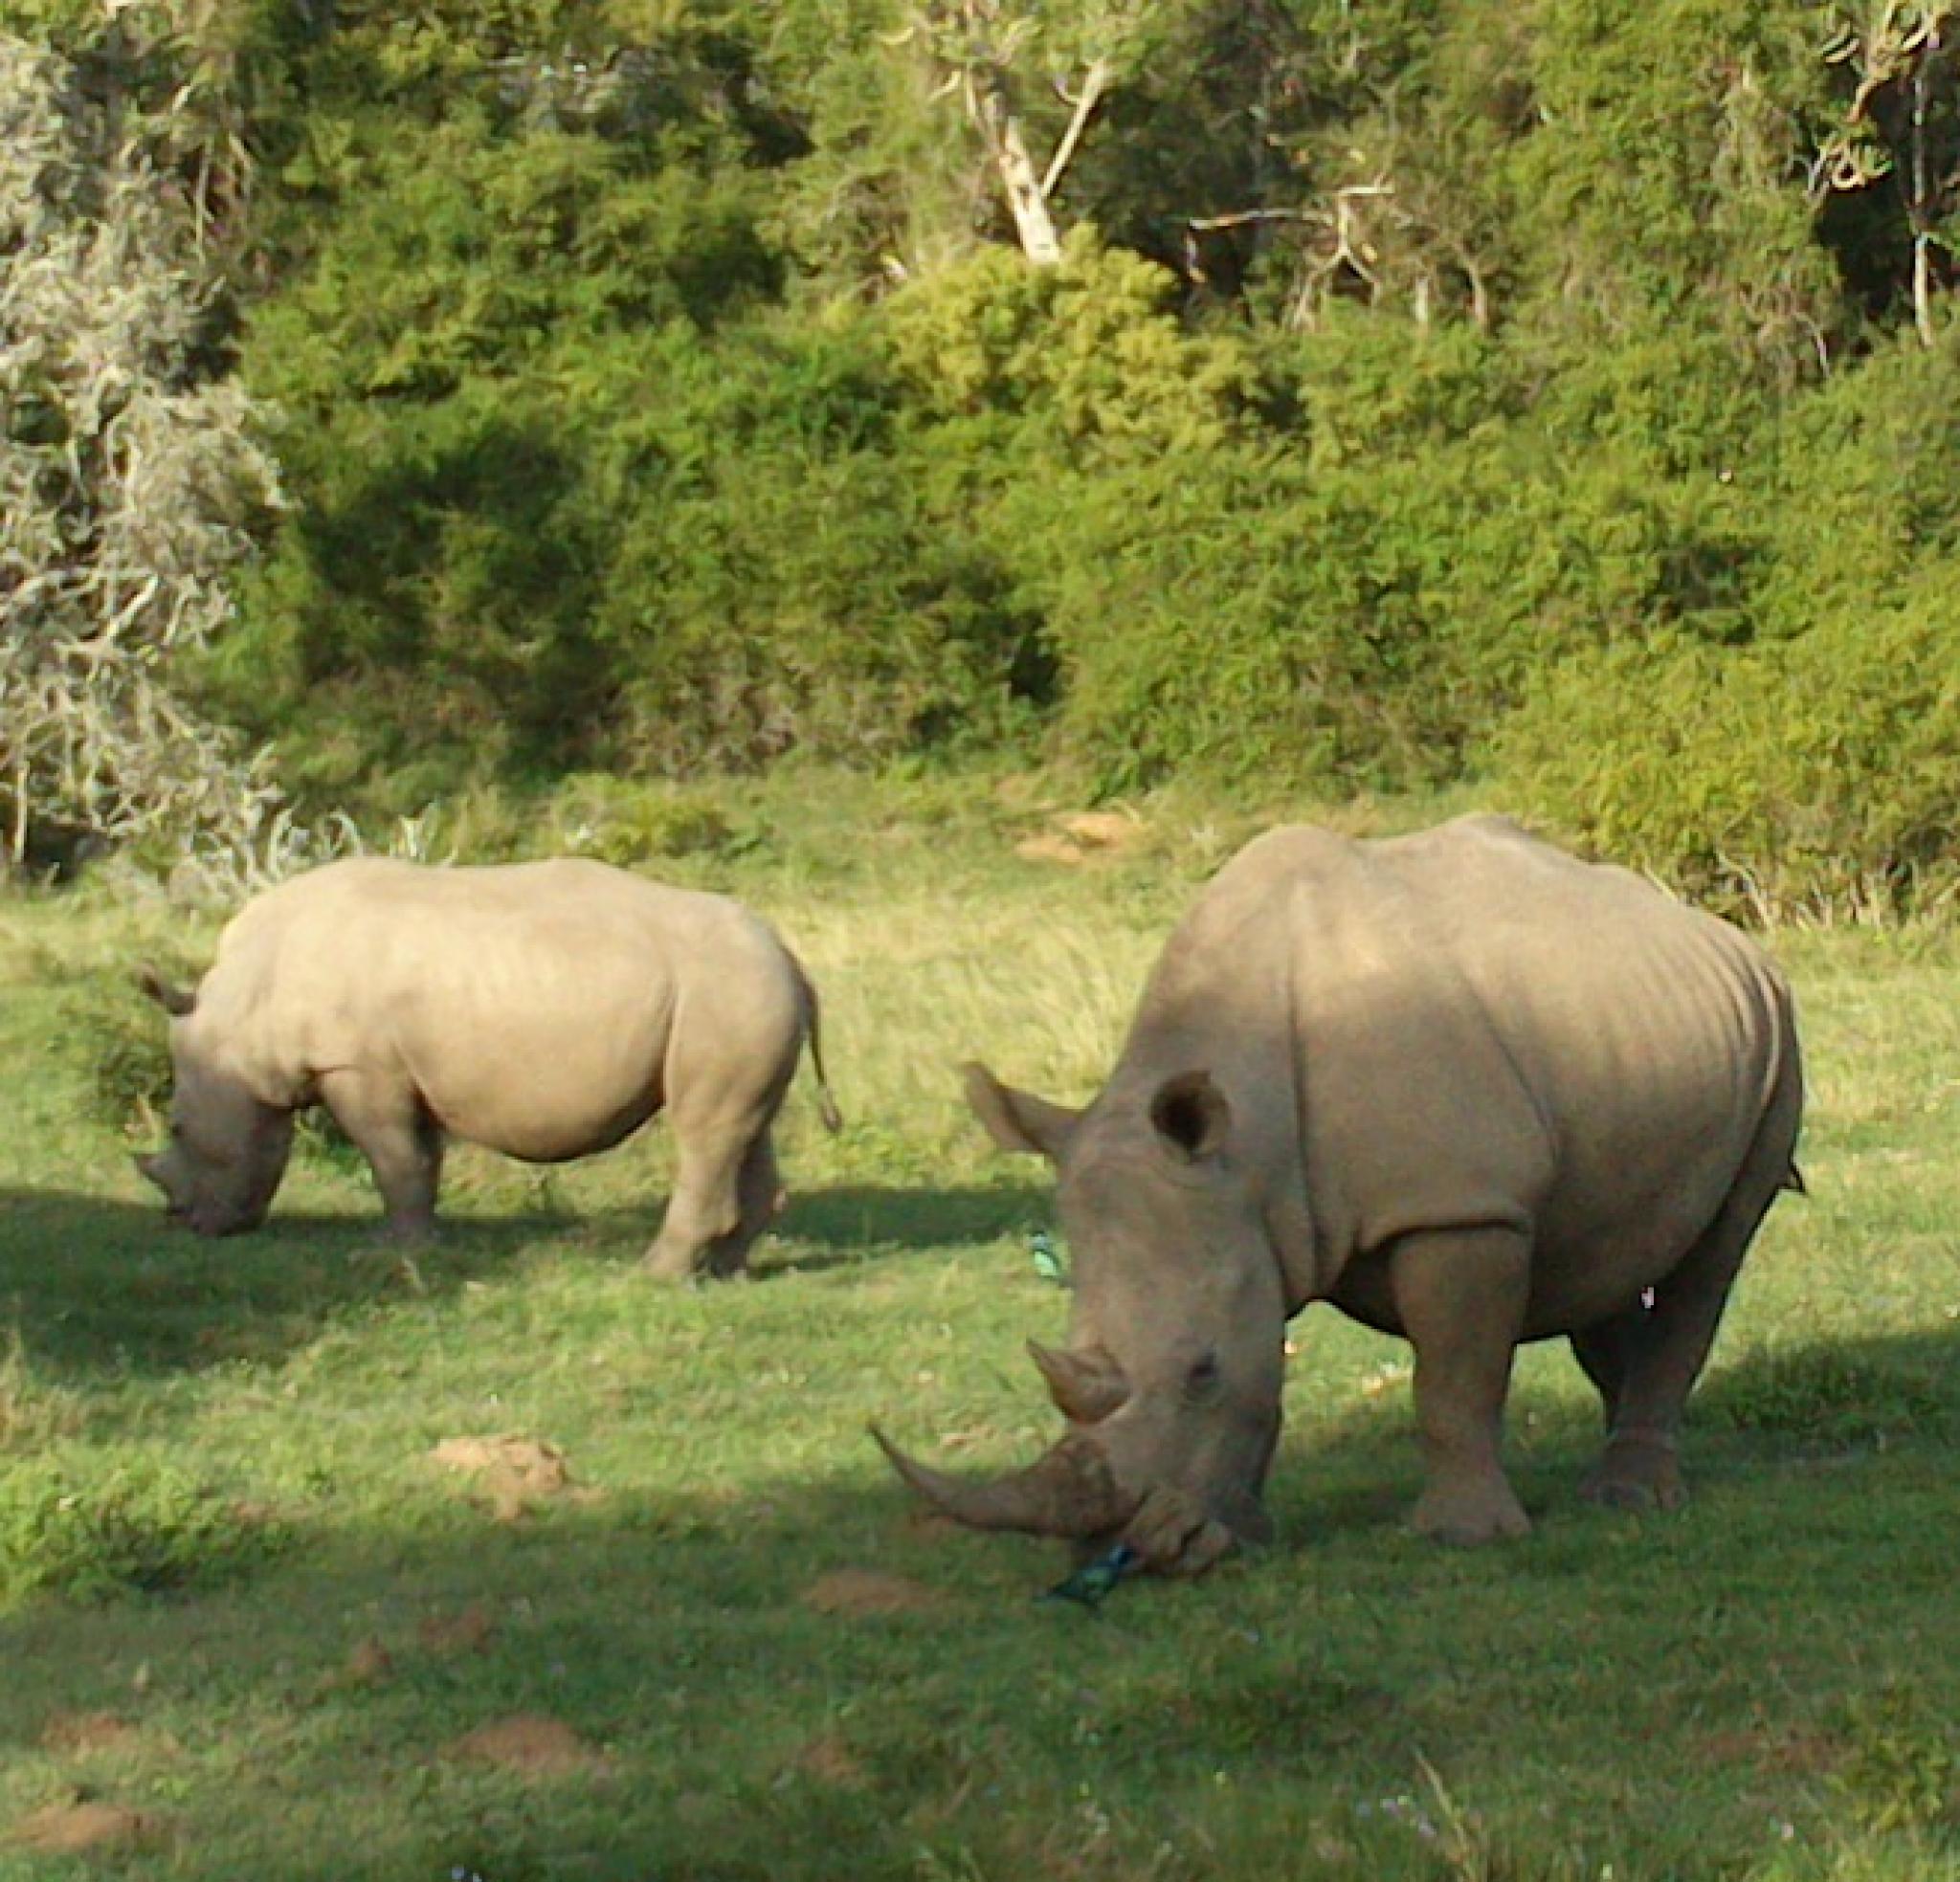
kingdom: Animalia
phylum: Chordata
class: Mammalia
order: Perissodactyla
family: Rhinocerotidae
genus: Ceratotherium
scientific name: Ceratotherium simum
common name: White rhinoceros
